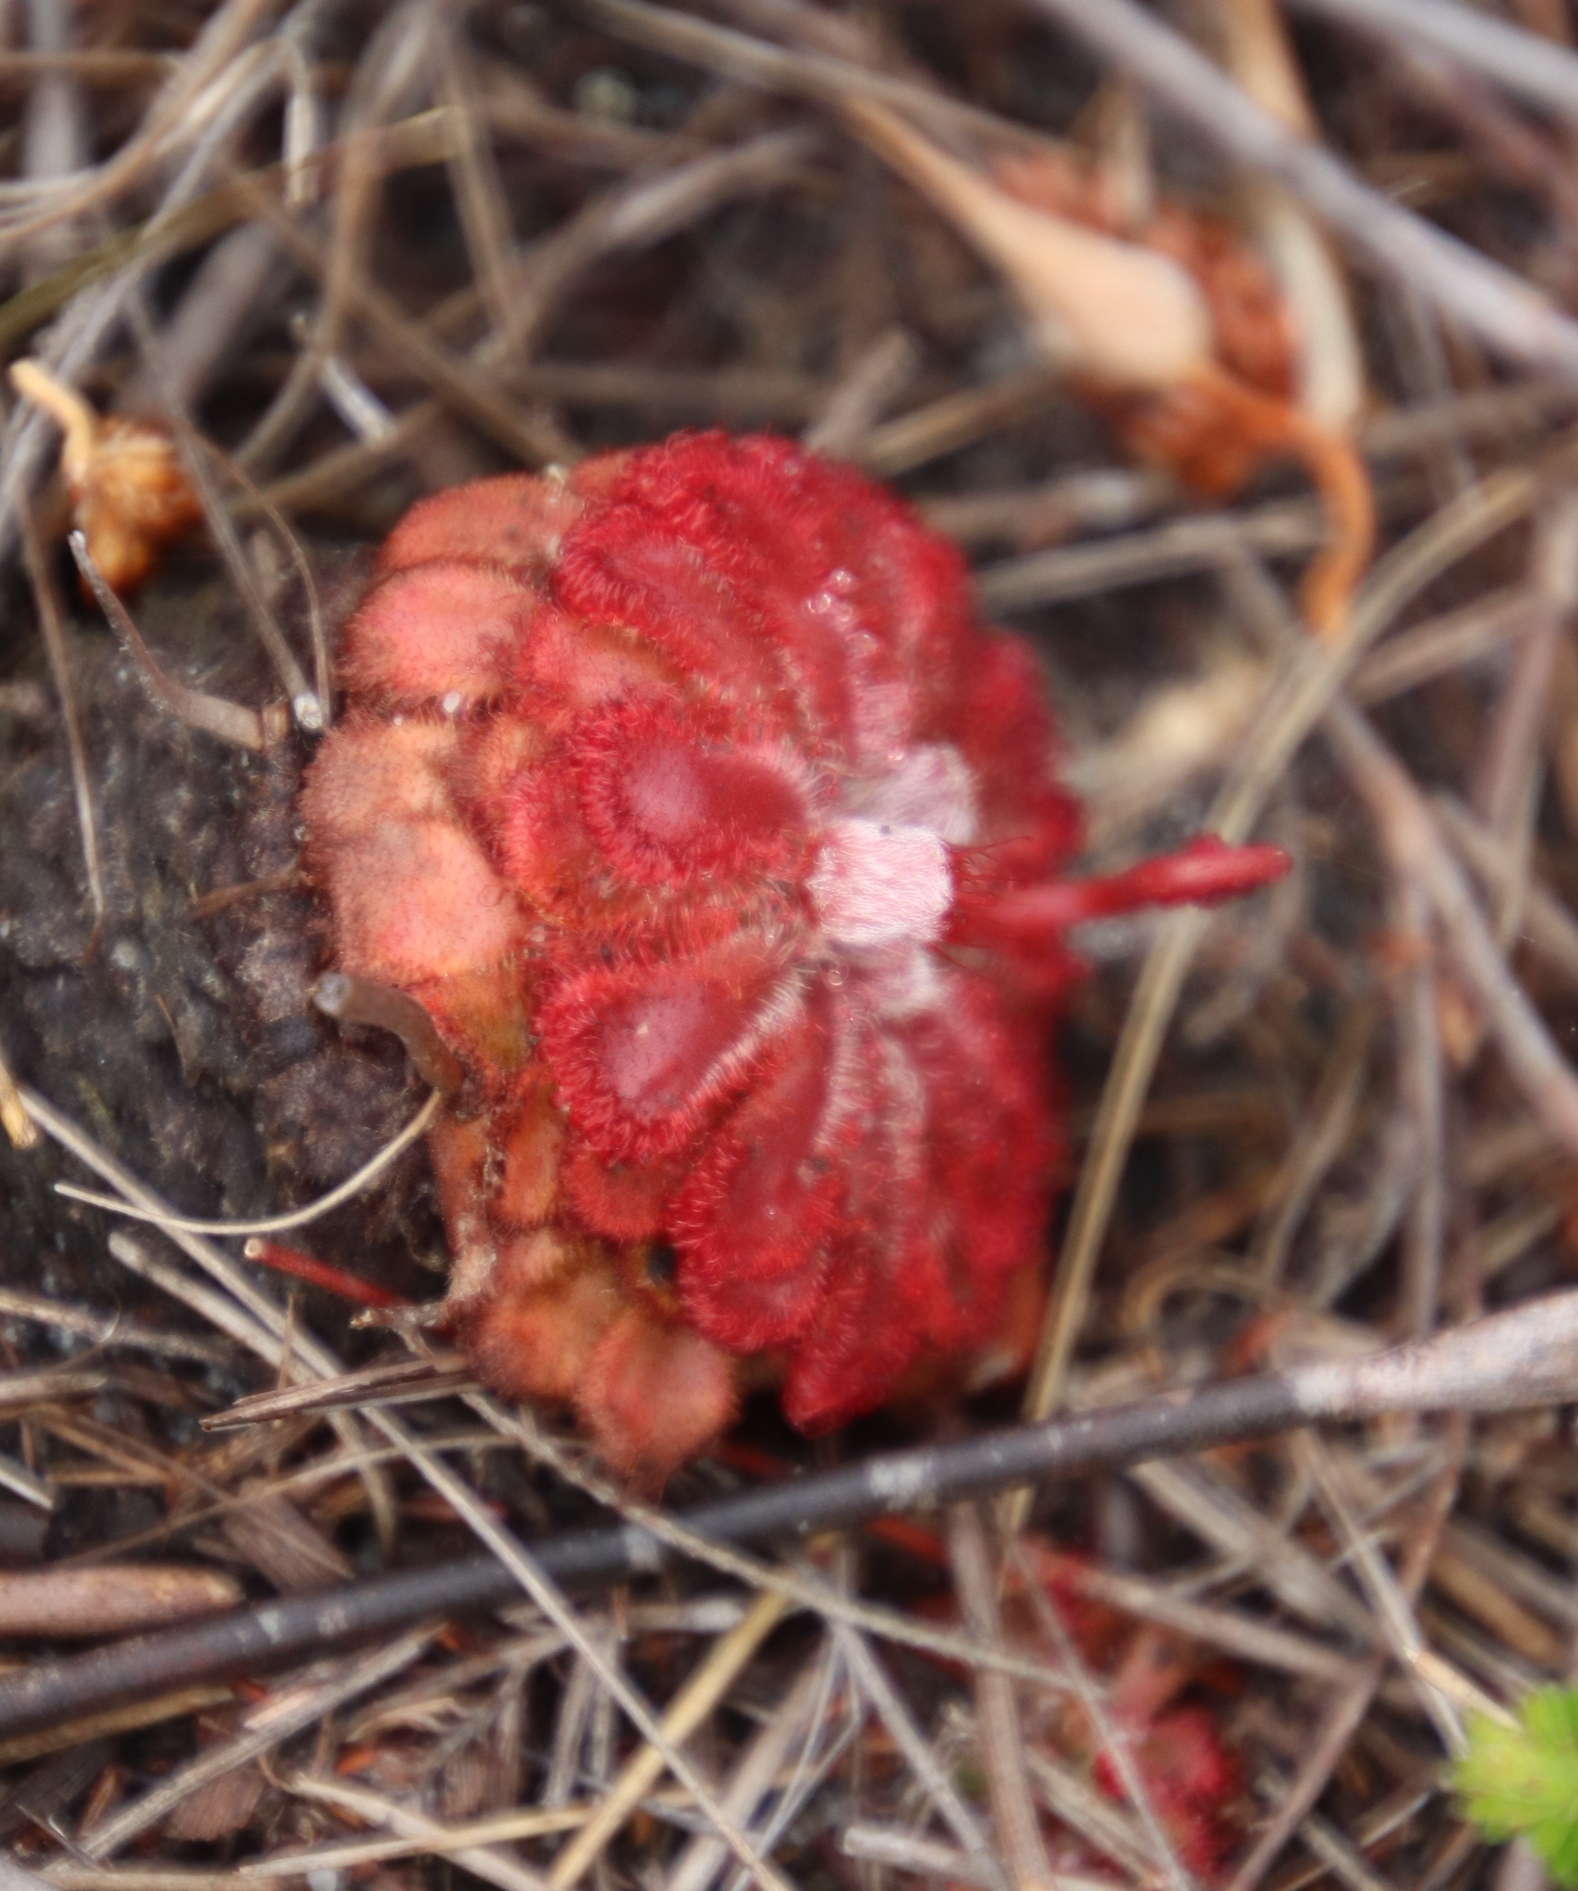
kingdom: Plantae
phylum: Tracheophyta
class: Magnoliopsida
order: Caryophyllales
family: Droseraceae
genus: Drosera
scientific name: Drosera aliciae
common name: Alice sundew
